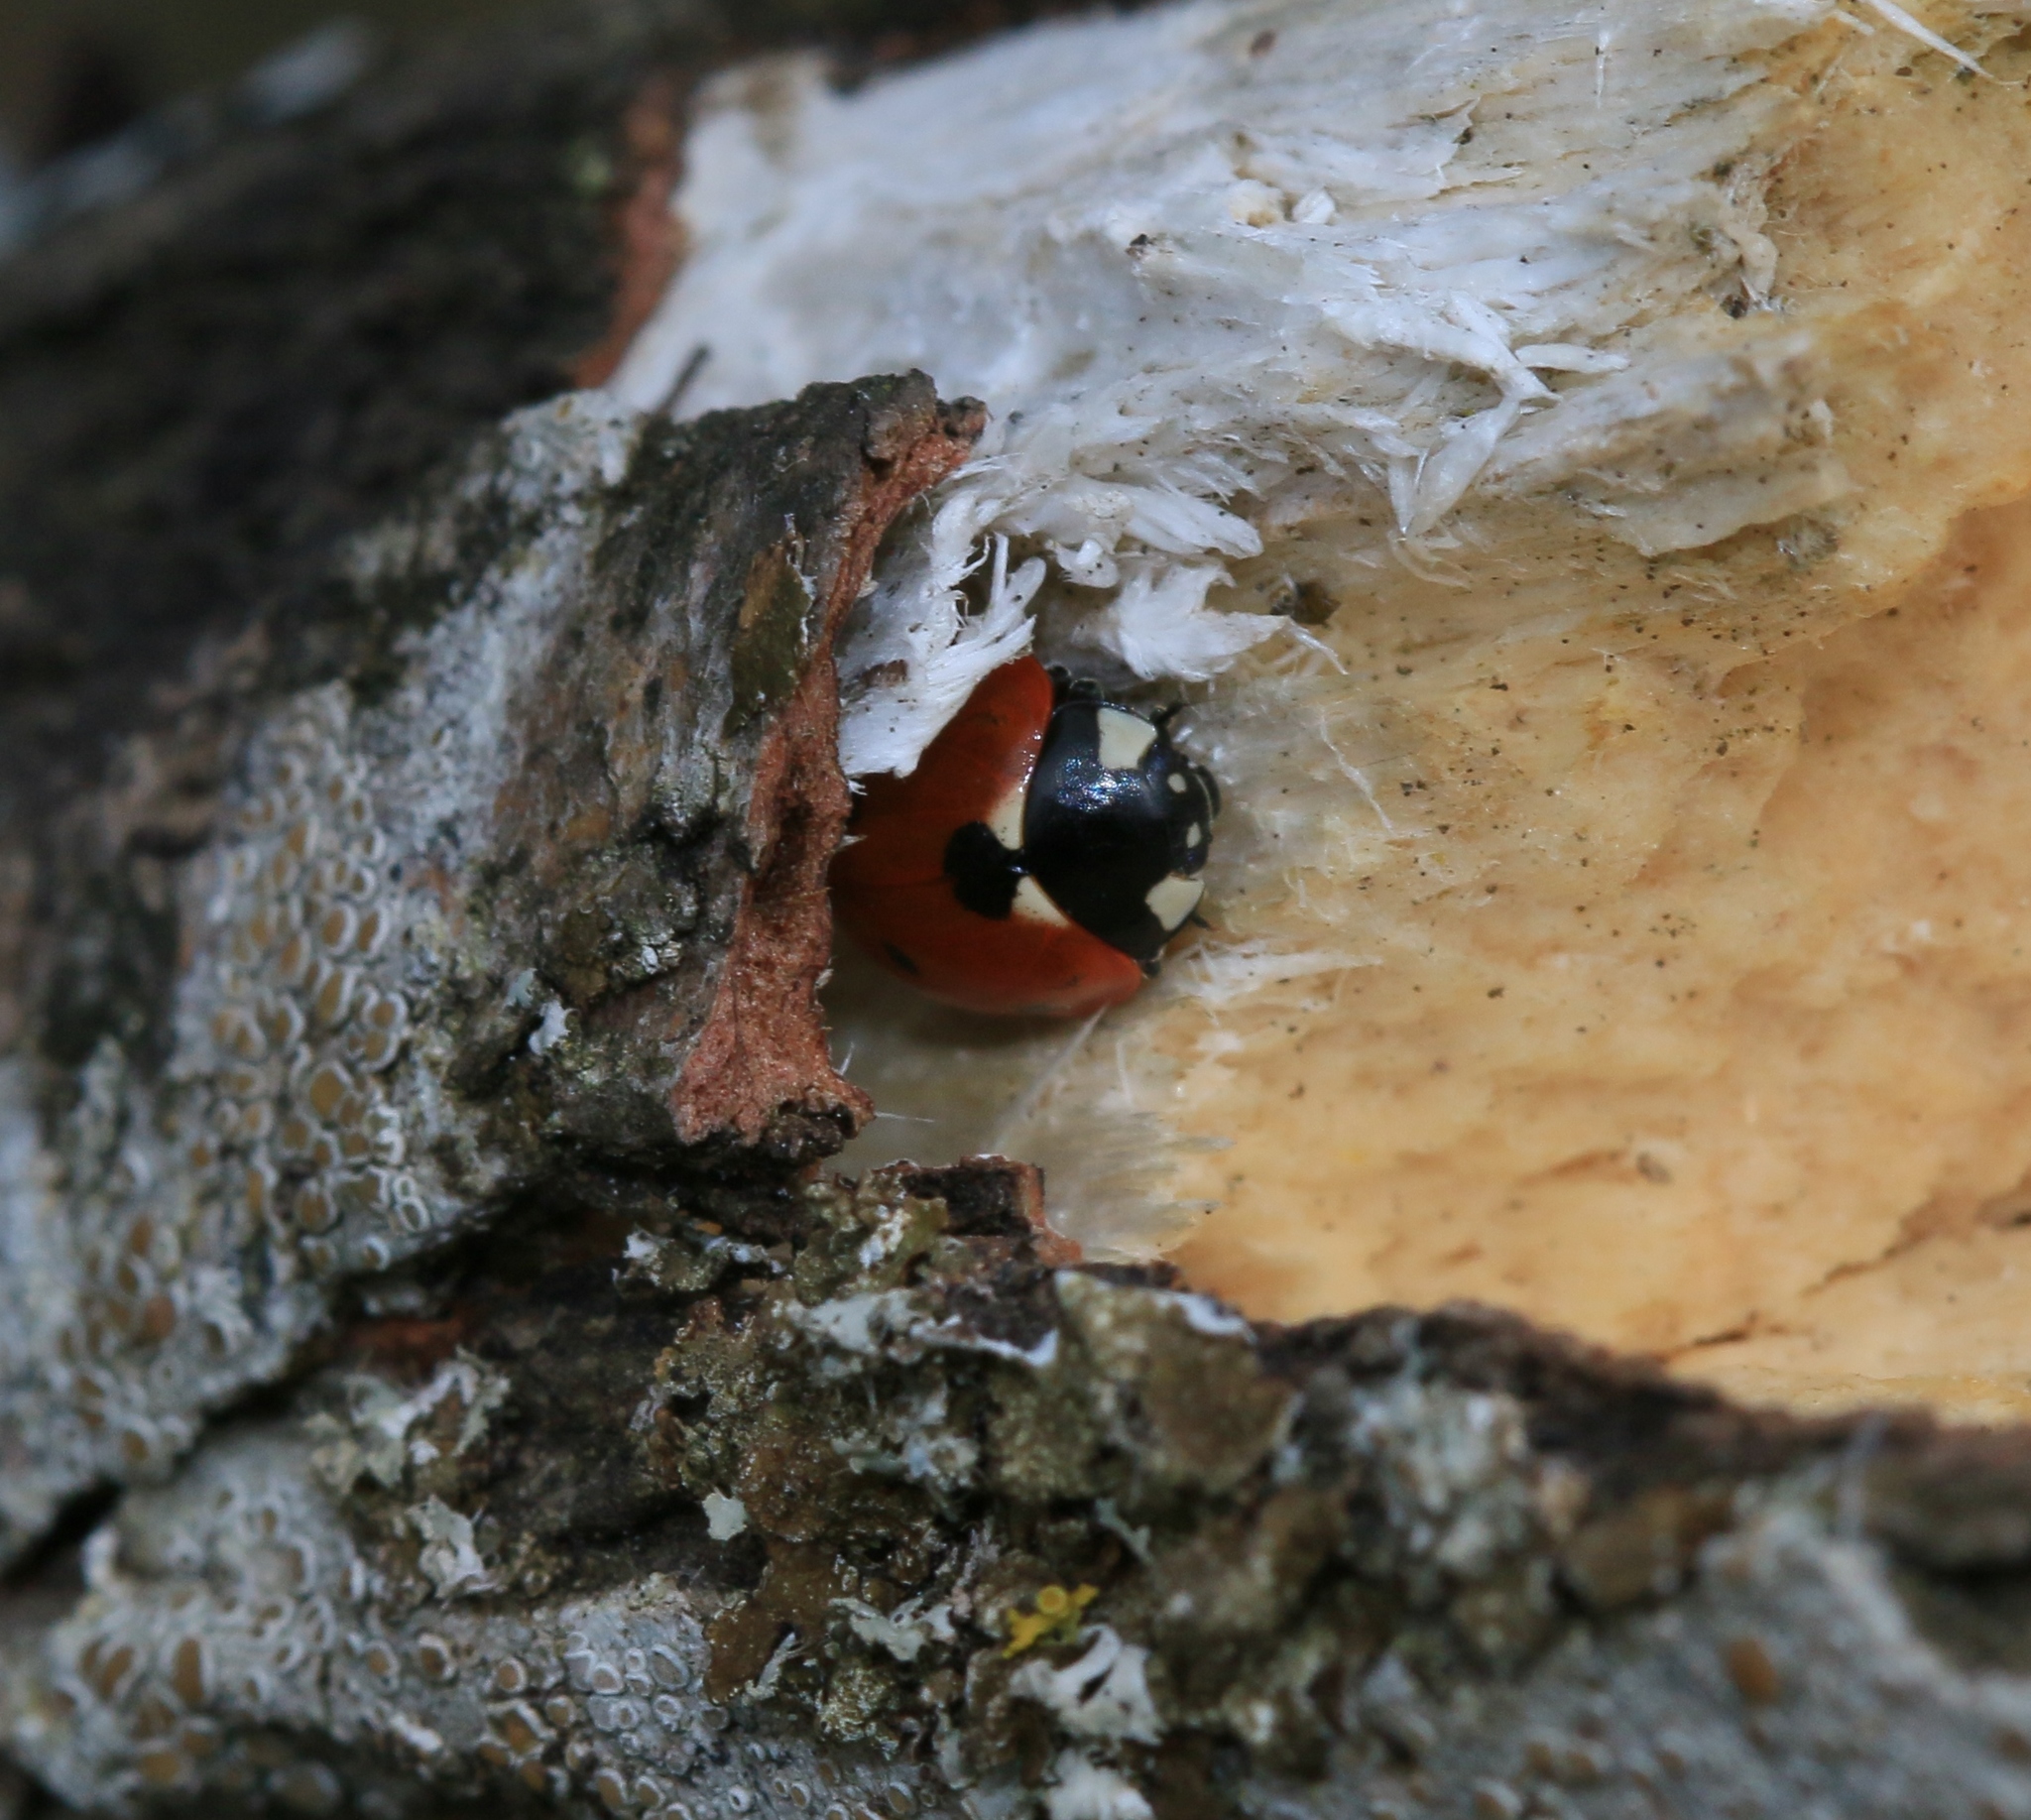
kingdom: Animalia
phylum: Arthropoda
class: Insecta
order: Coleoptera
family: Coccinellidae
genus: Coccinella
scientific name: Coccinella septempunctata
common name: Sevenspotted lady beetle
